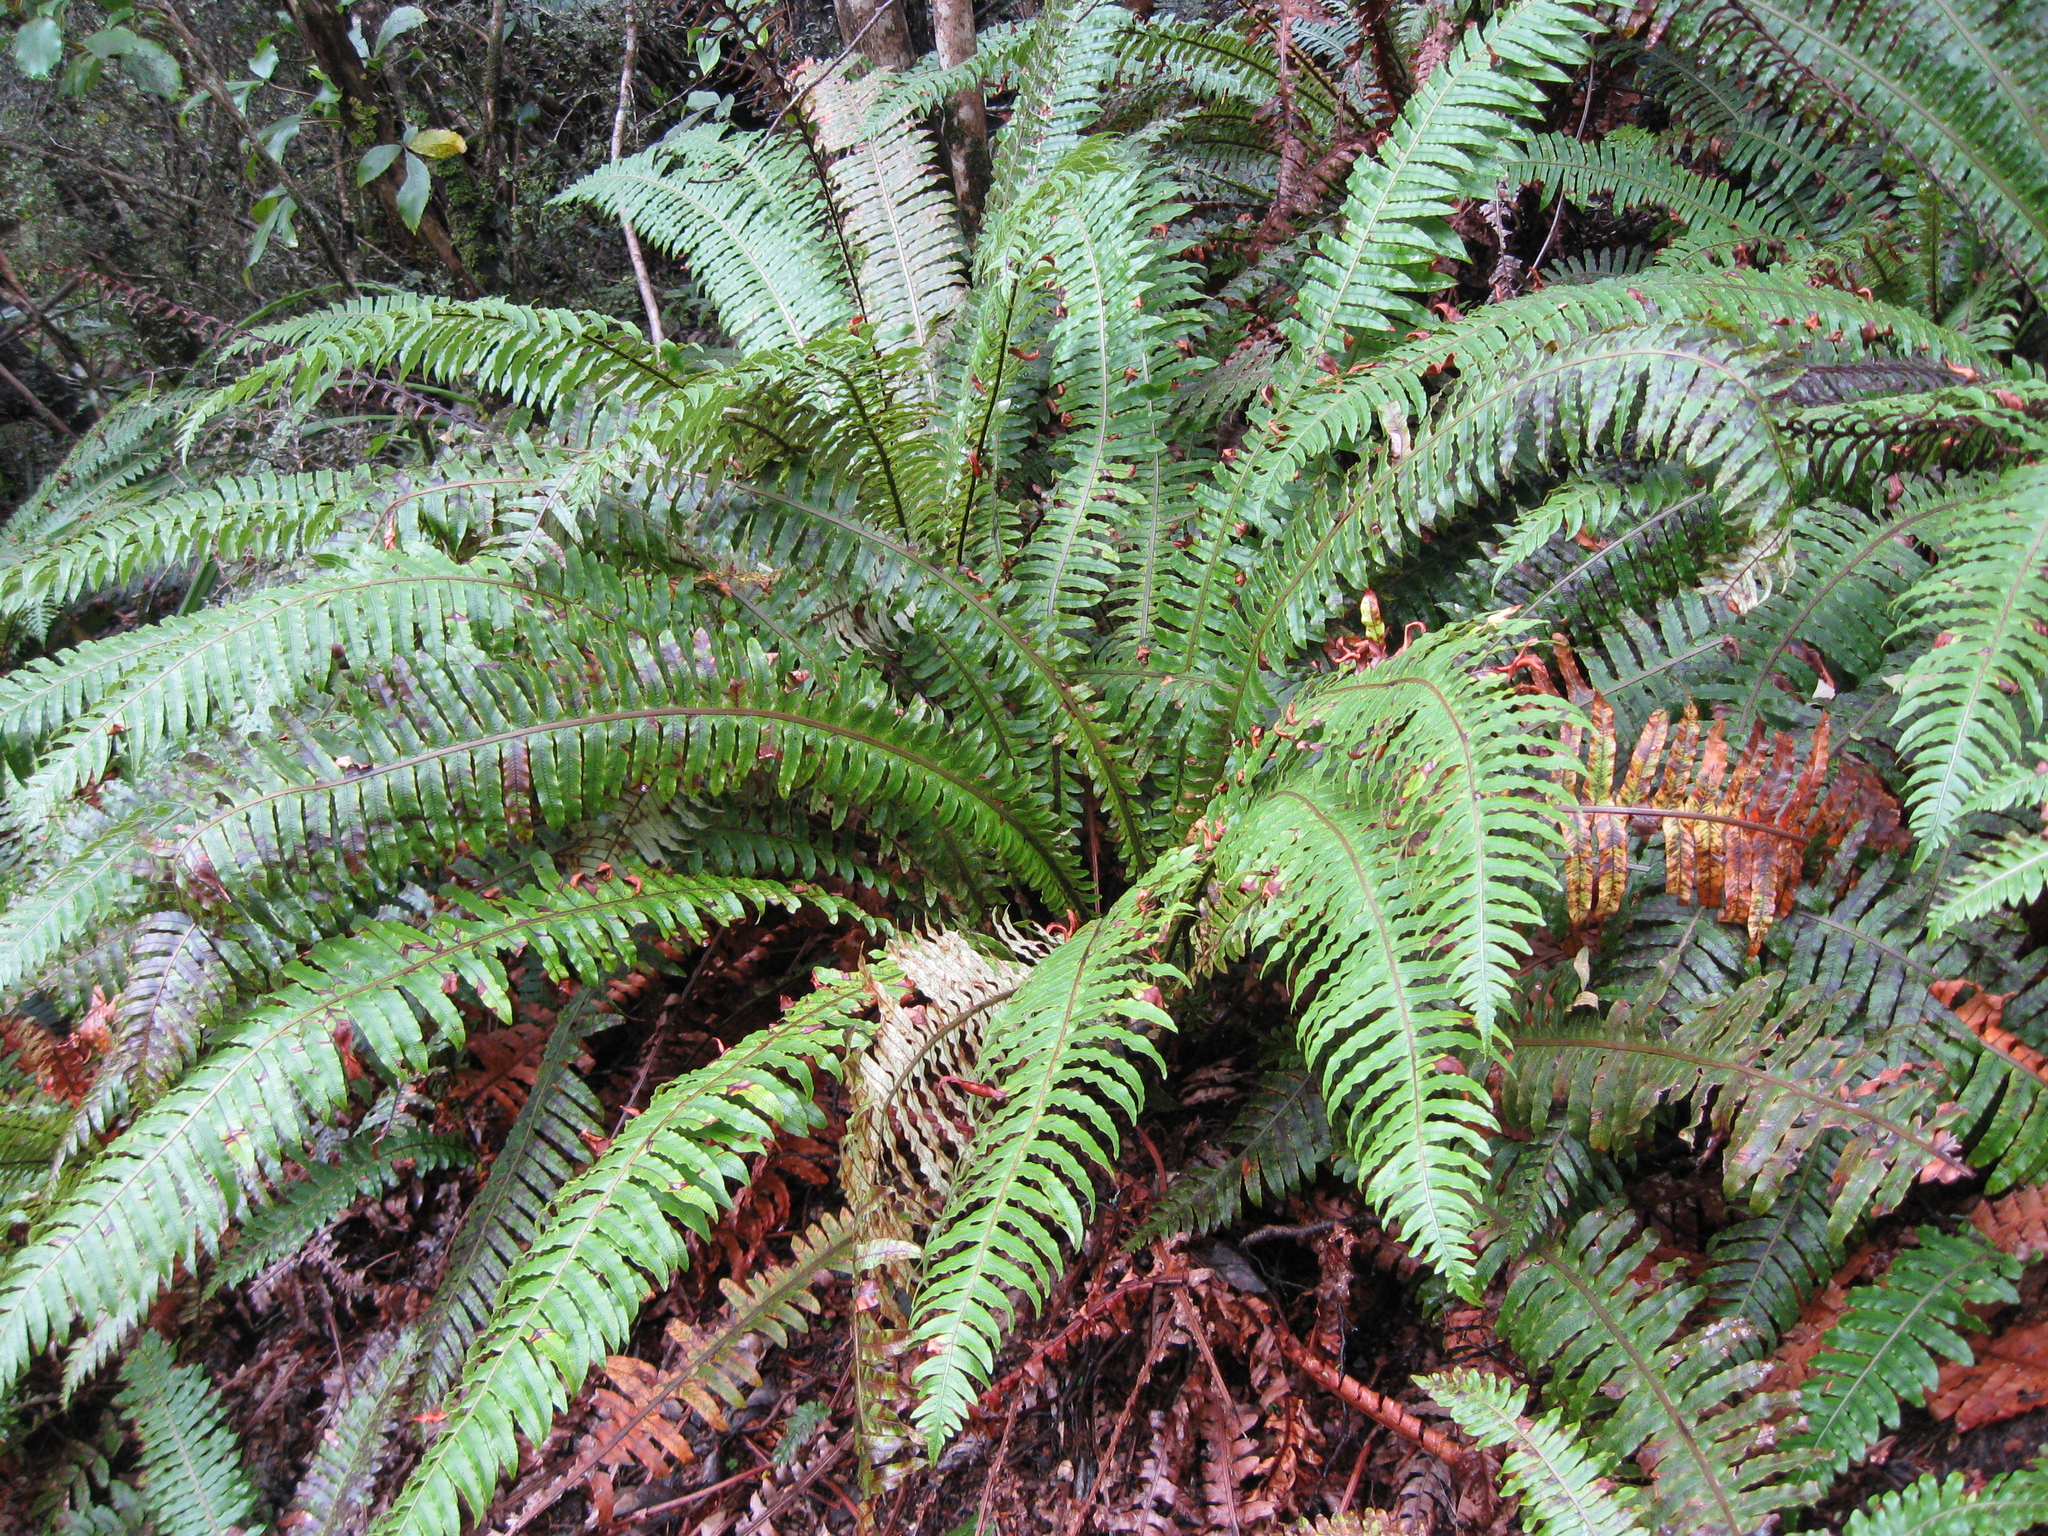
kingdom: Plantae
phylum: Tracheophyta
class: Polypodiopsida
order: Polypodiales
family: Blechnaceae
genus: Lomaria
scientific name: Lomaria discolor
